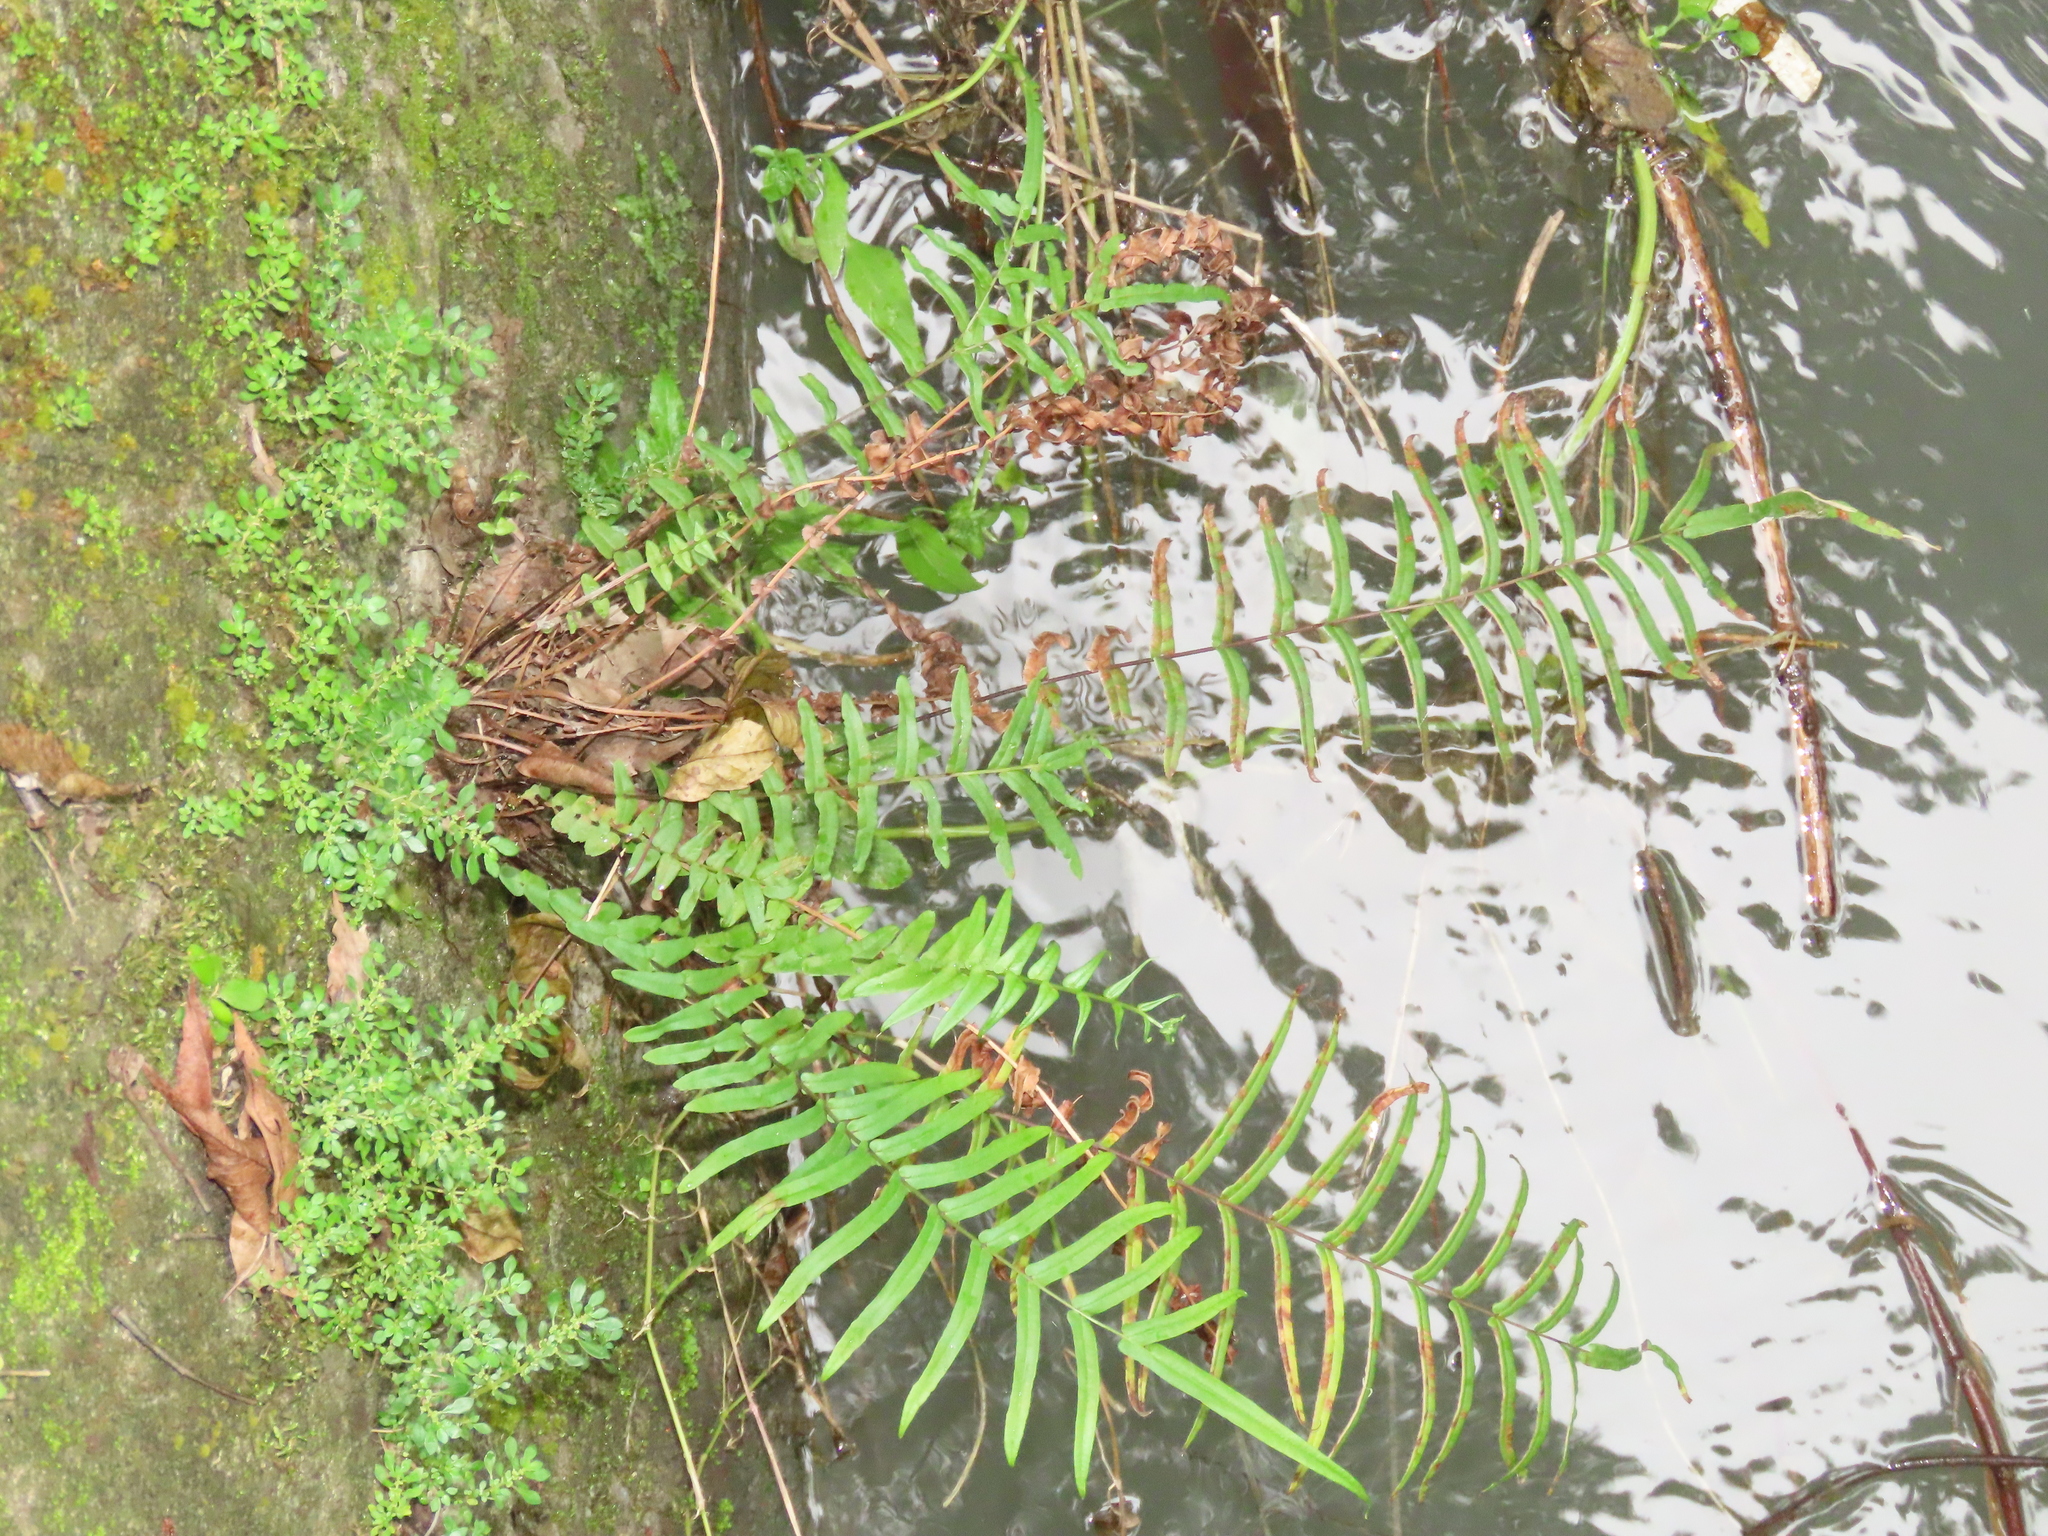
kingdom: Plantae
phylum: Tracheophyta
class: Polypodiopsida
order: Polypodiales
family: Pteridaceae
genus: Pteris
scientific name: Pteris vittata
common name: Ladder brake
